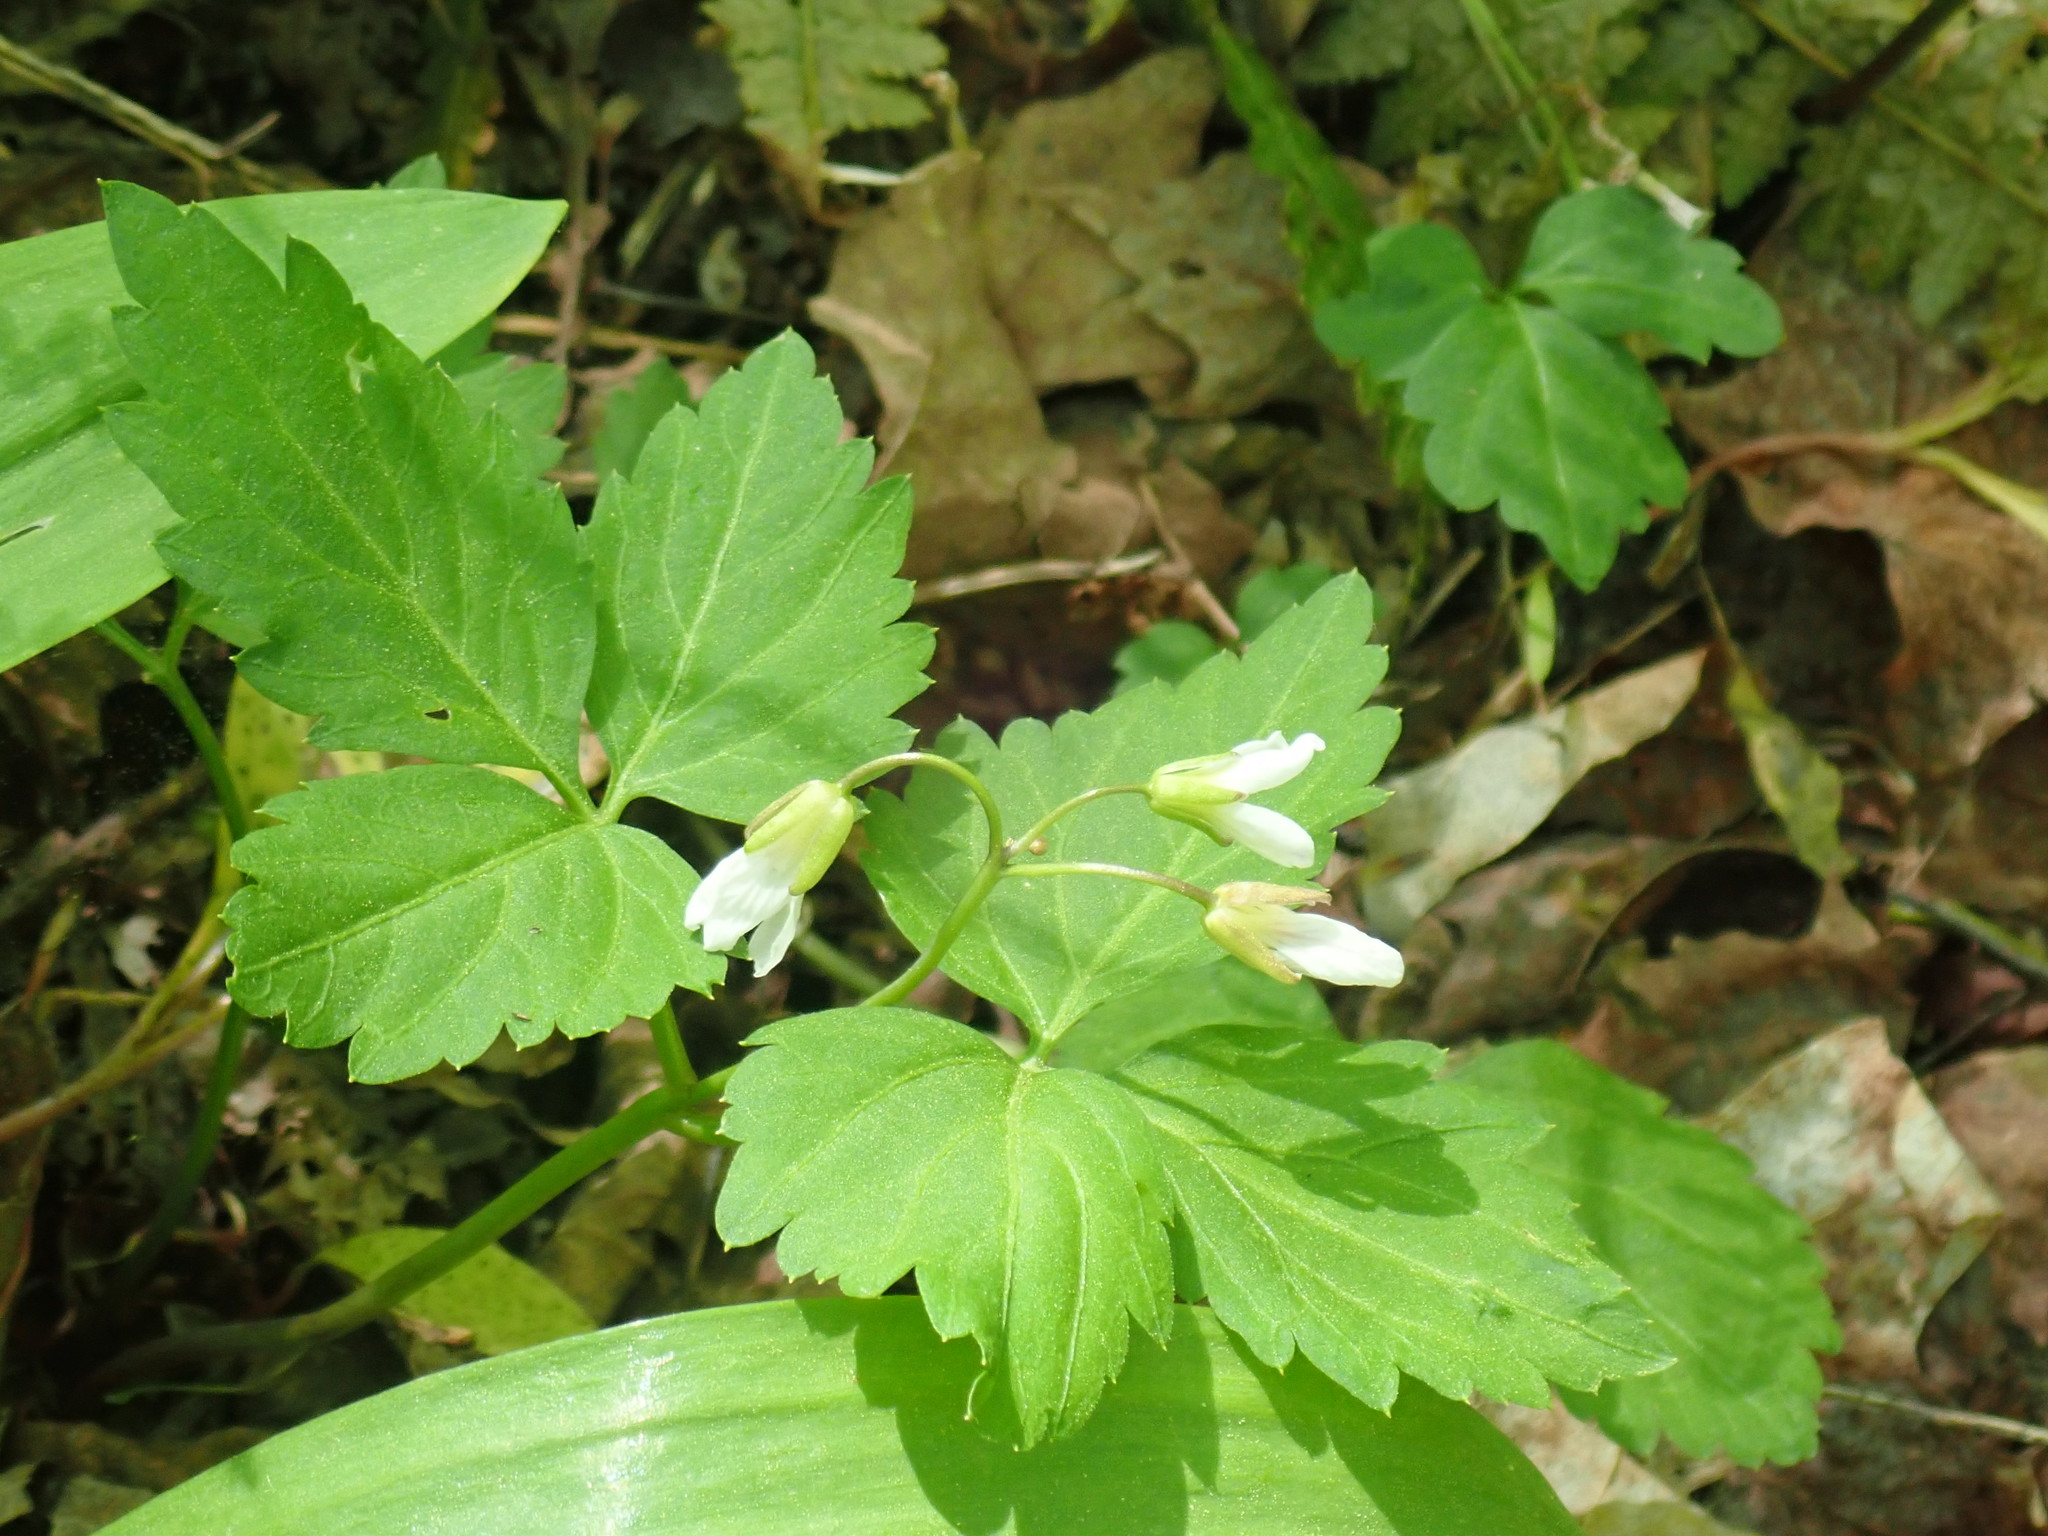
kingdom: Plantae
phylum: Tracheophyta
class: Magnoliopsida
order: Brassicales
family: Brassicaceae
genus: Cardamine
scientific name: Cardamine diphylla
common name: Broad-leaved toothwort
